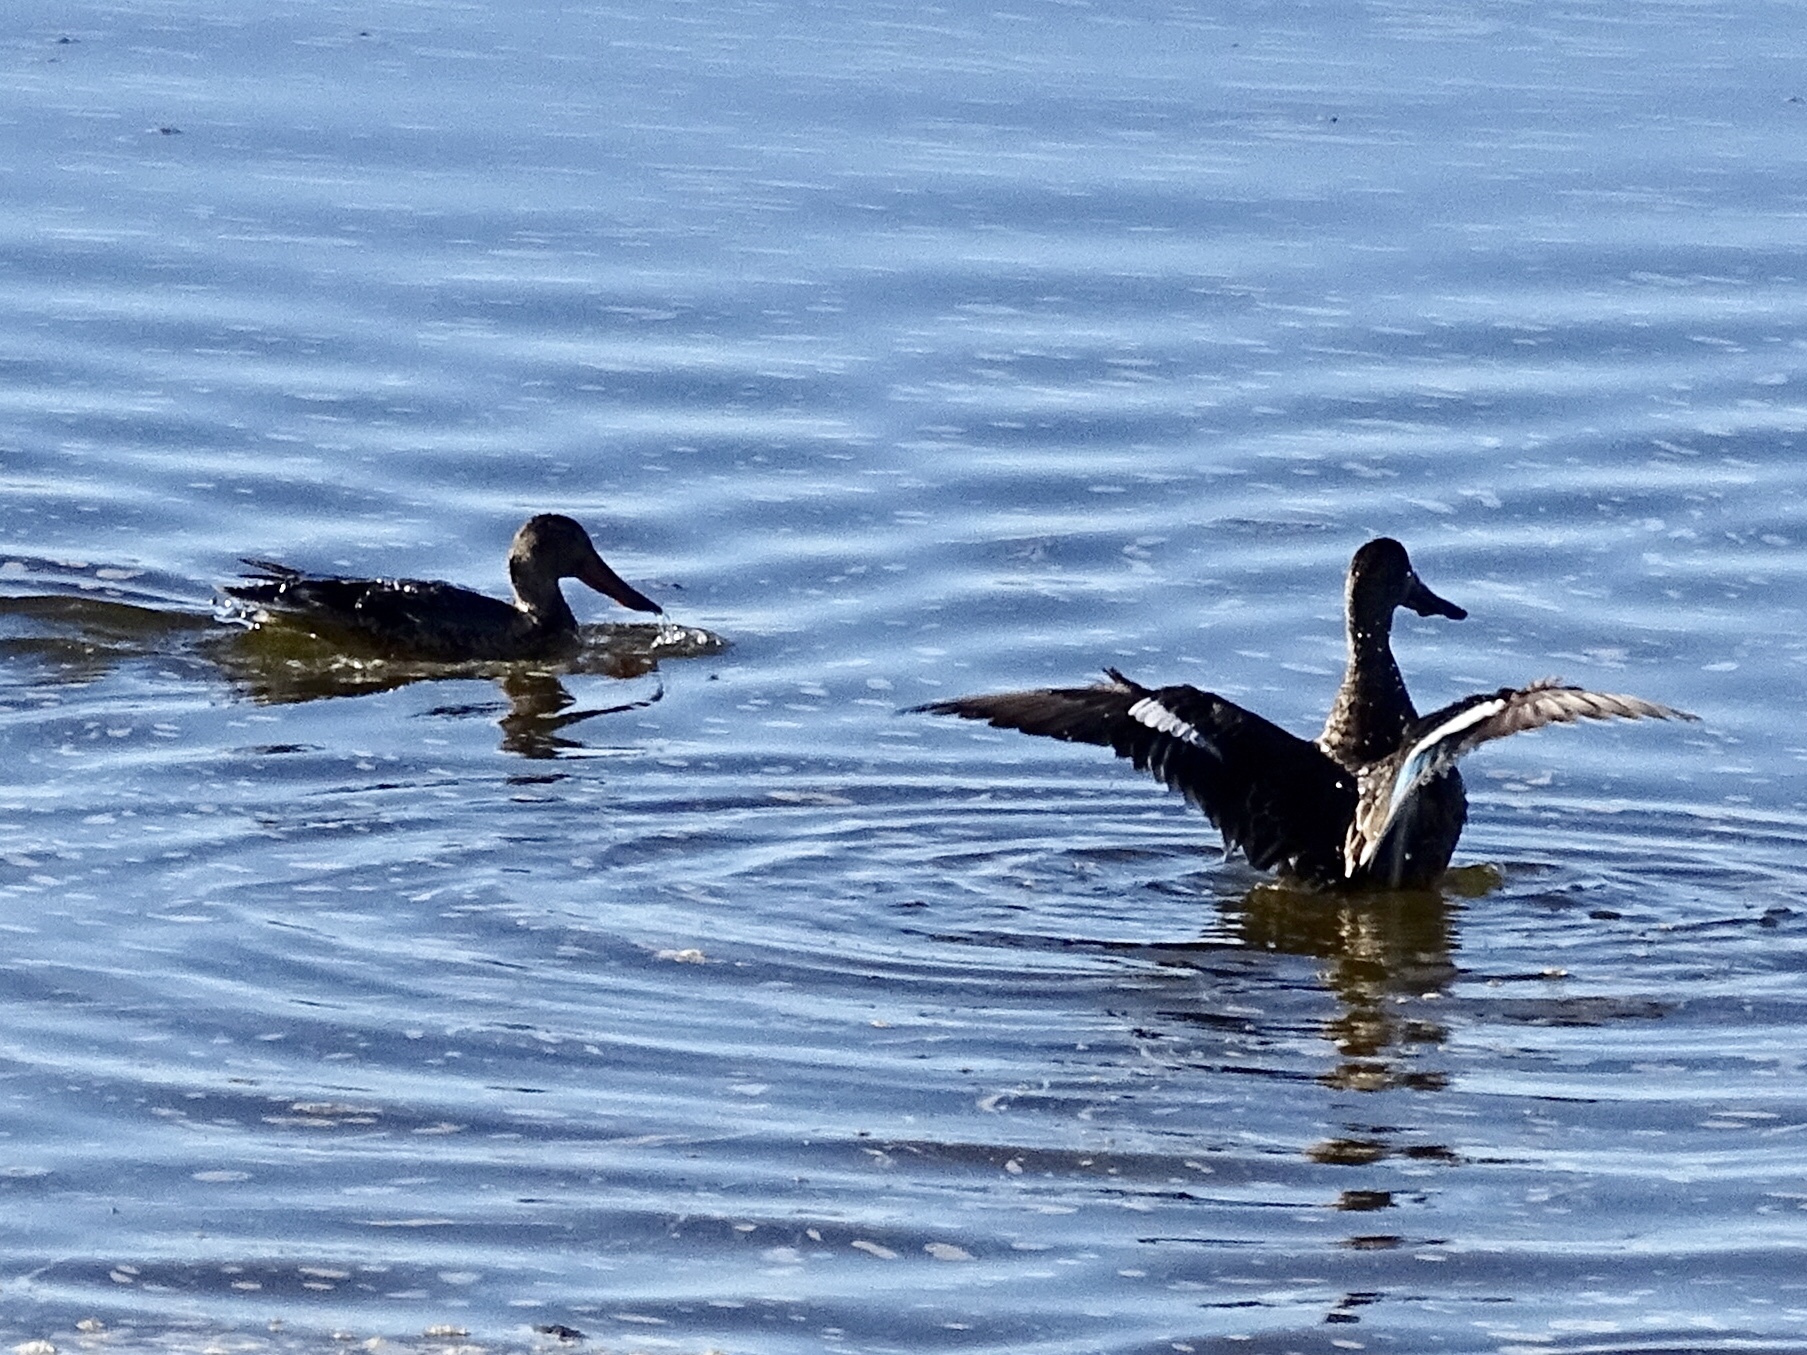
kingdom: Animalia
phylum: Chordata
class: Aves
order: Anseriformes
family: Anatidae
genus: Spatula
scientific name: Spatula clypeata
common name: Northern shoveler
